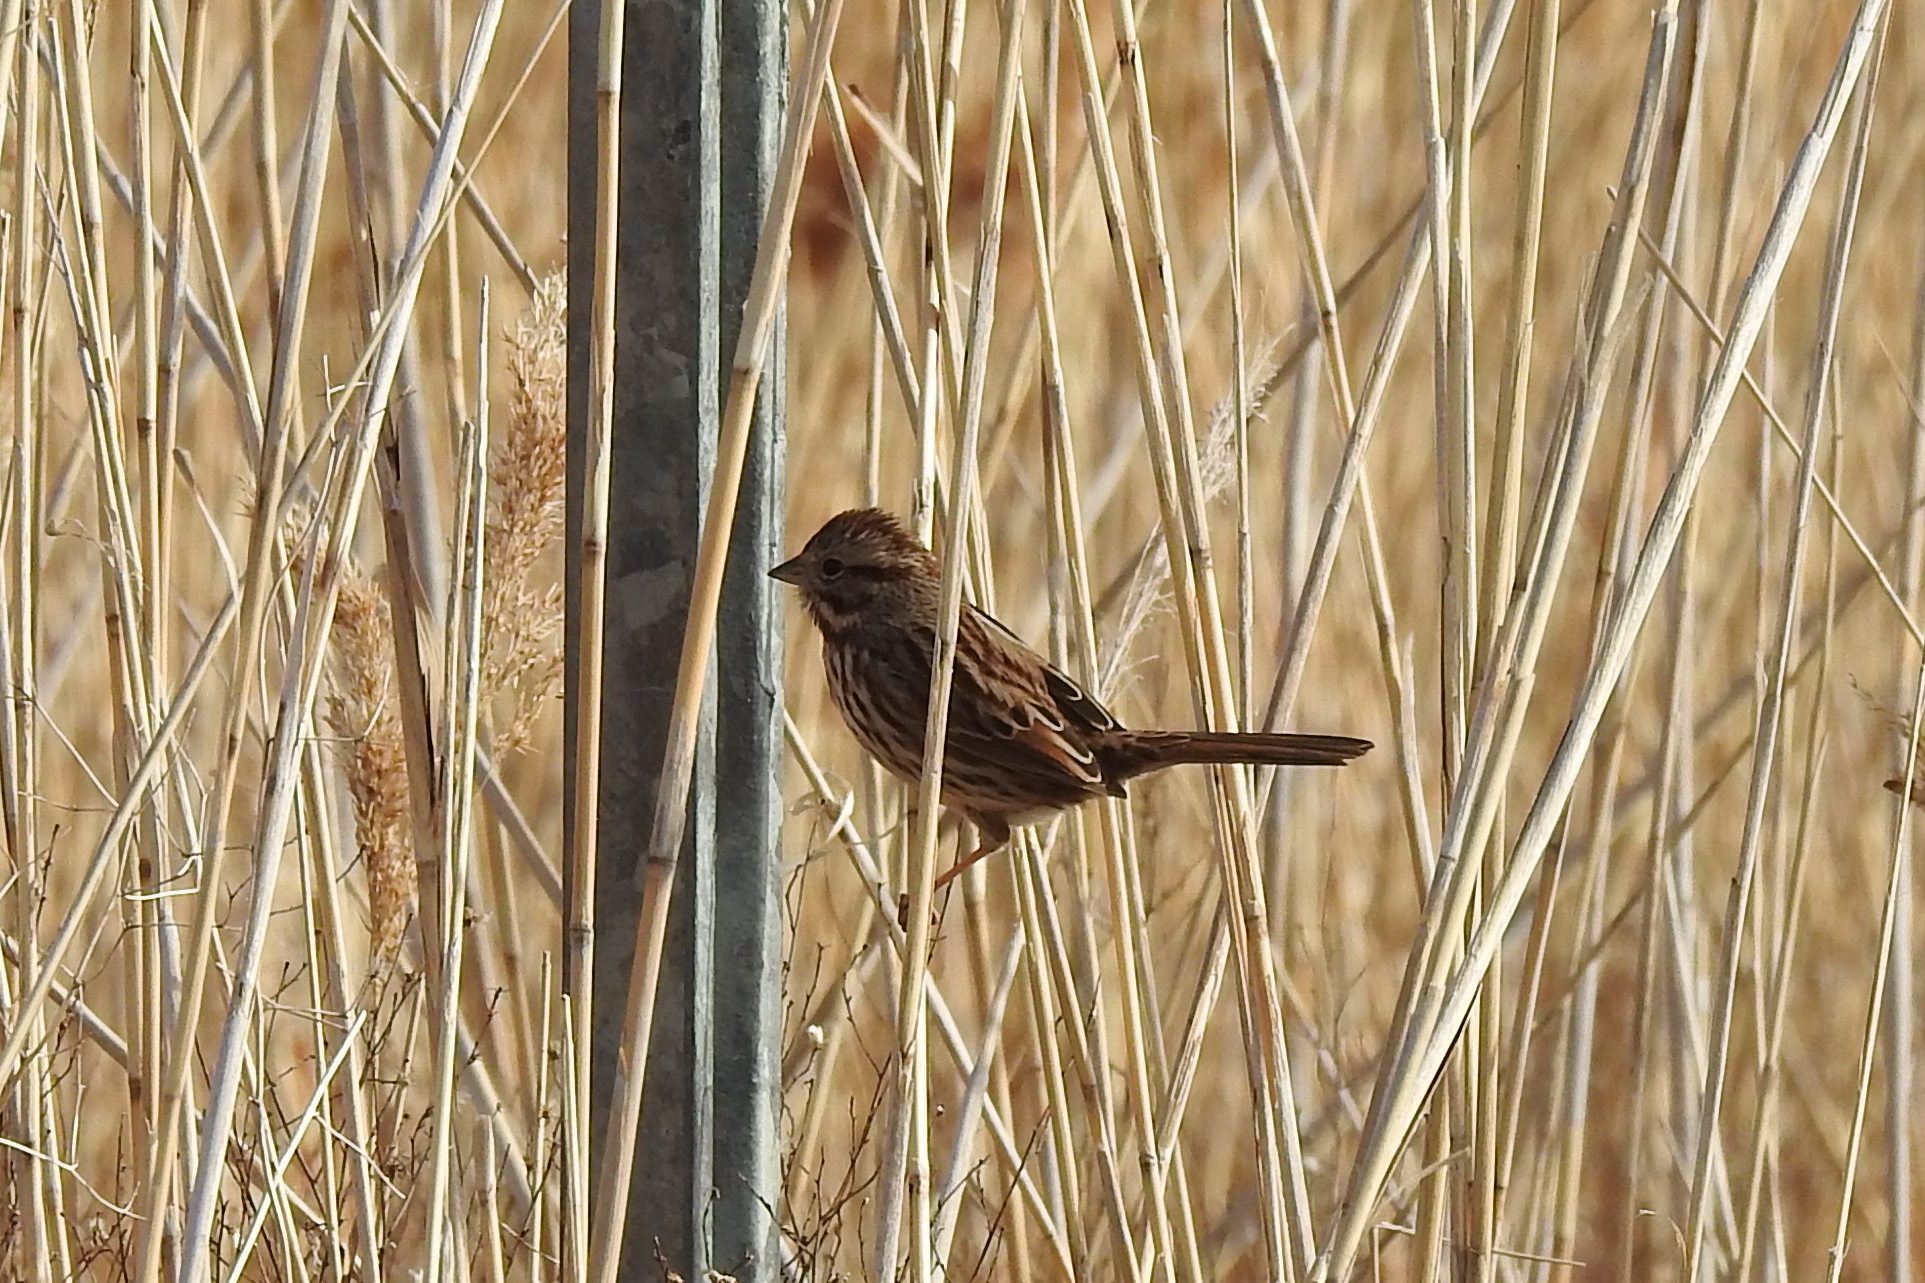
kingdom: Animalia
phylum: Chordata
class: Aves
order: Passeriformes
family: Passerellidae
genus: Melospiza
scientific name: Melospiza melodia
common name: Song sparrow
